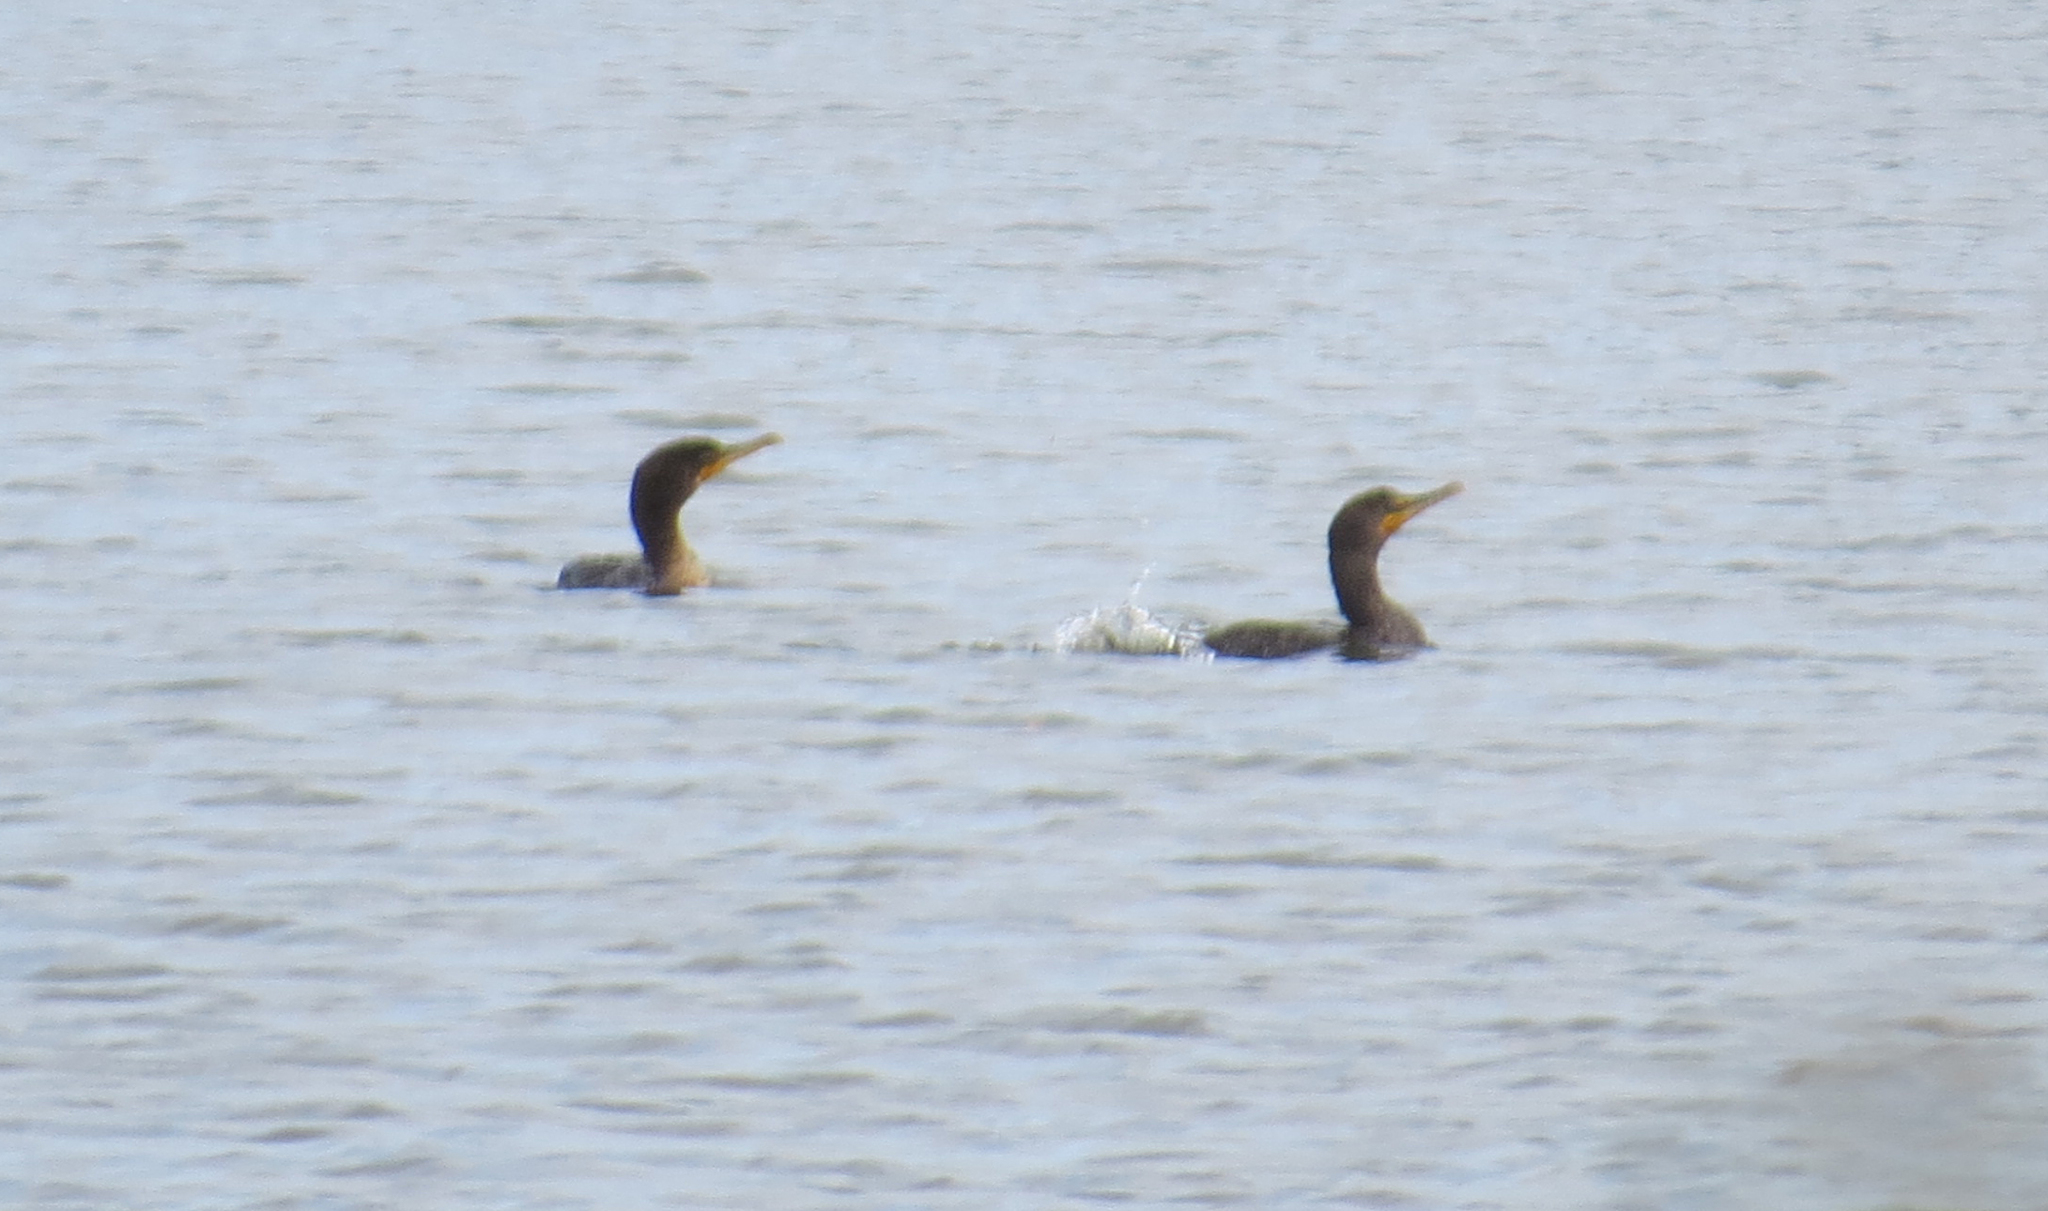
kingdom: Animalia
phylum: Chordata
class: Aves
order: Suliformes
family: Phalacrocoracidae
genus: Phalacrocorax
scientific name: Phalacrocorax auritus
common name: Double-crested cormorant
